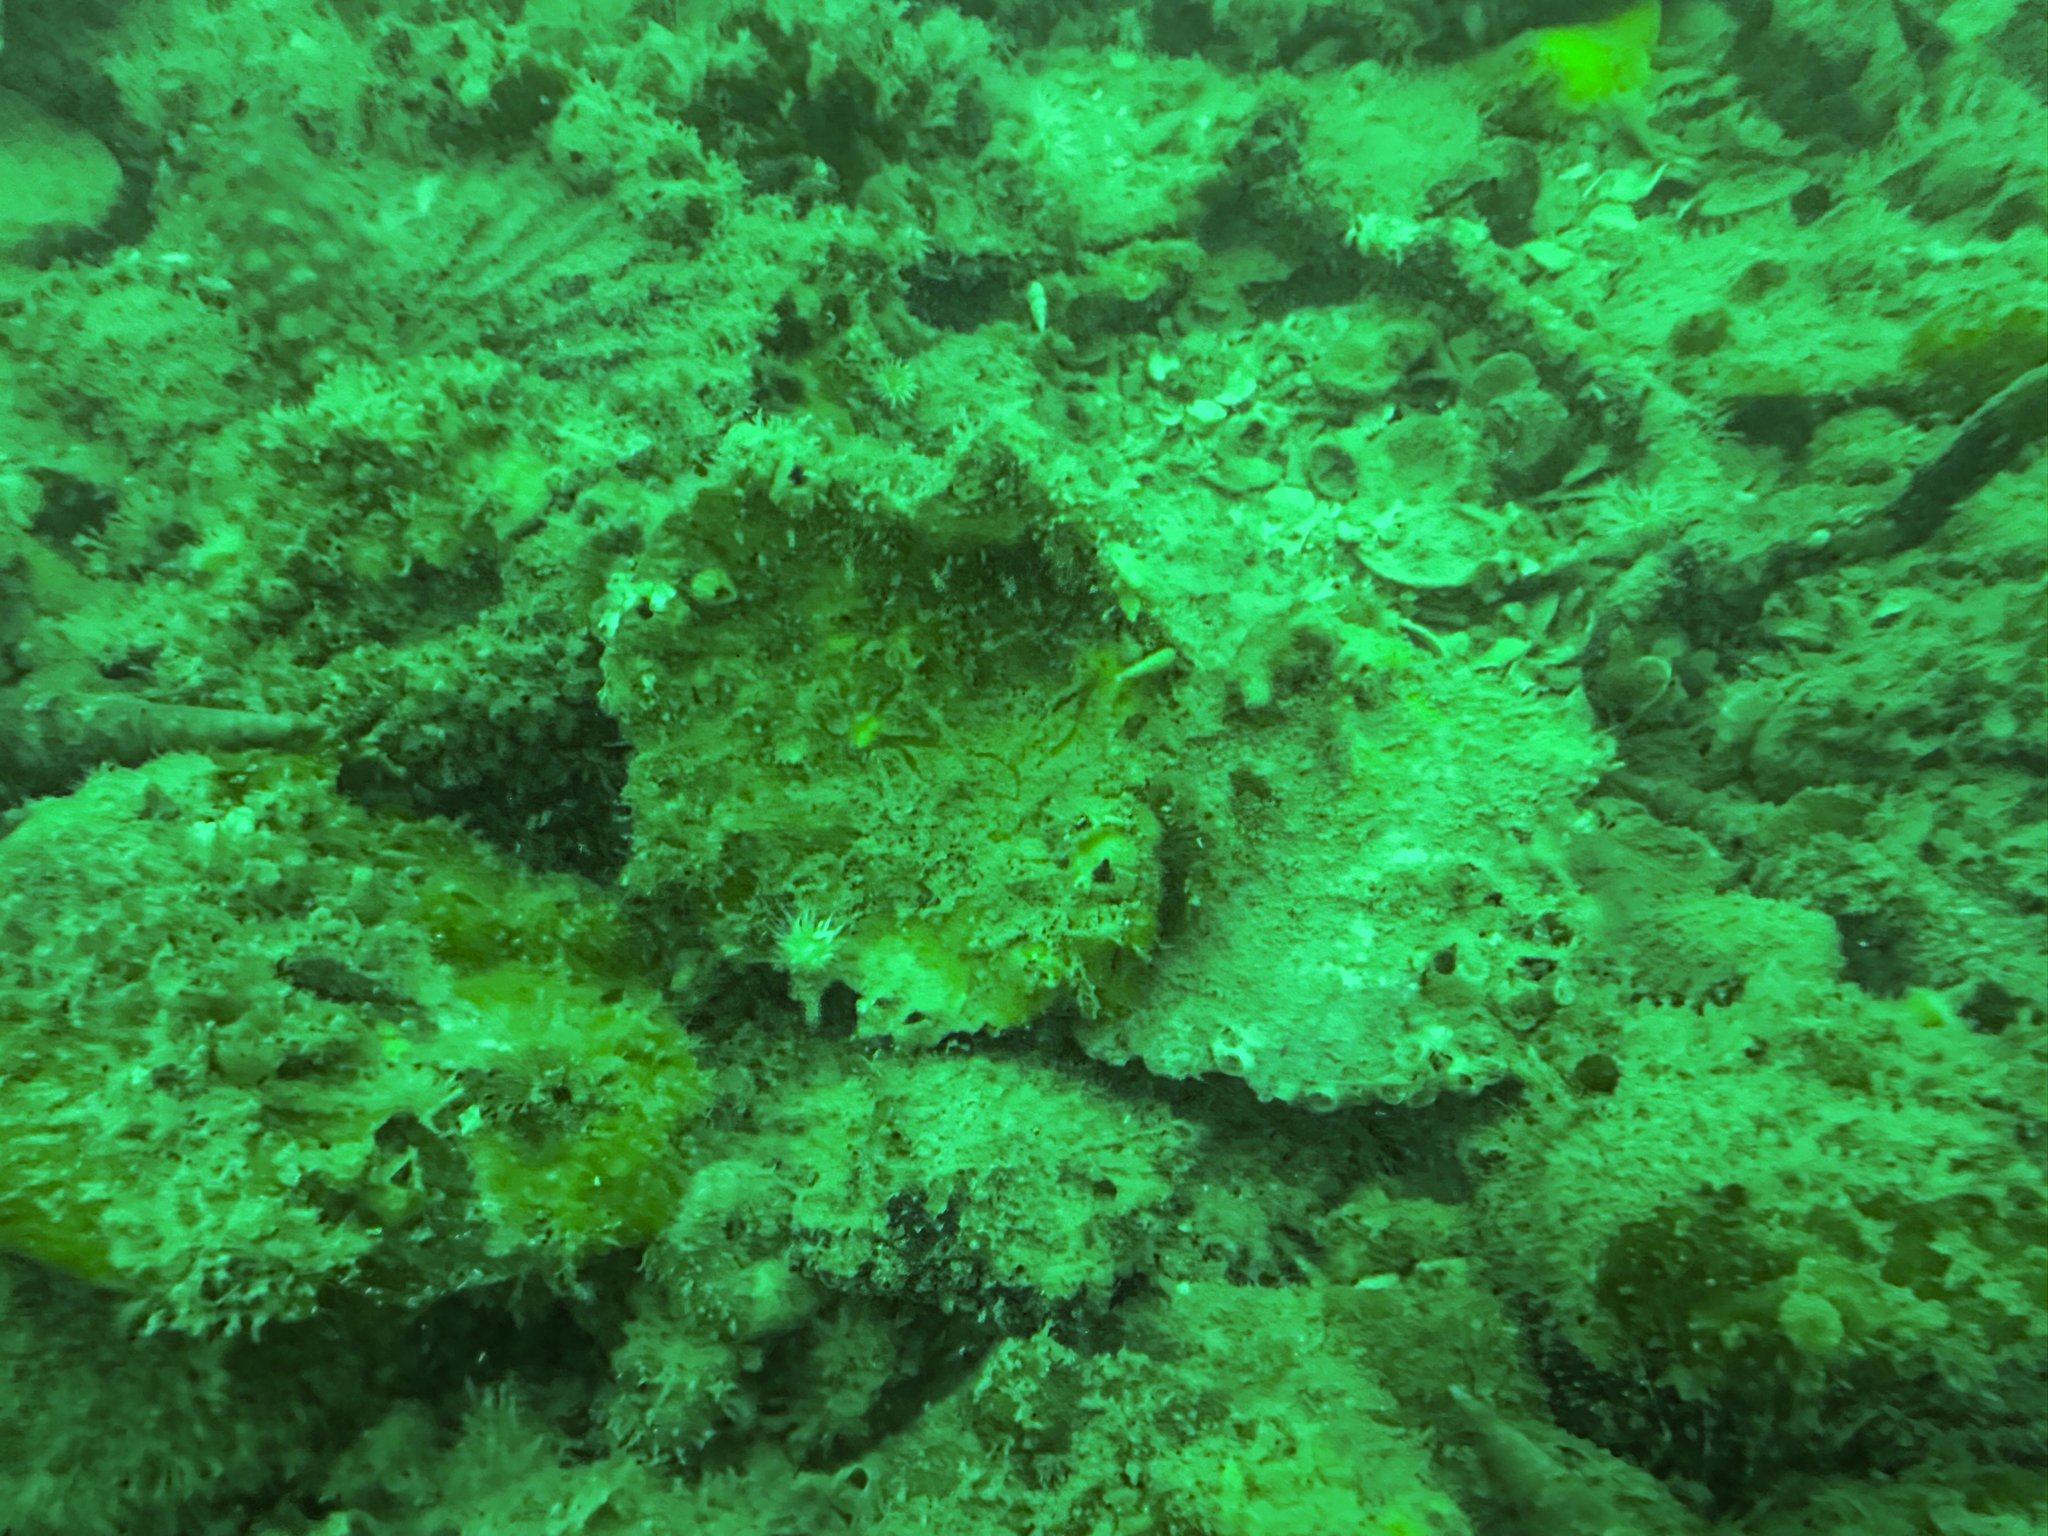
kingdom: Animalia
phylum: Mollusca
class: Bivalvia
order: Pectinida
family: Pectinidae
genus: Pecten
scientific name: Pecten novaezelandiae
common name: New zealand scallop
